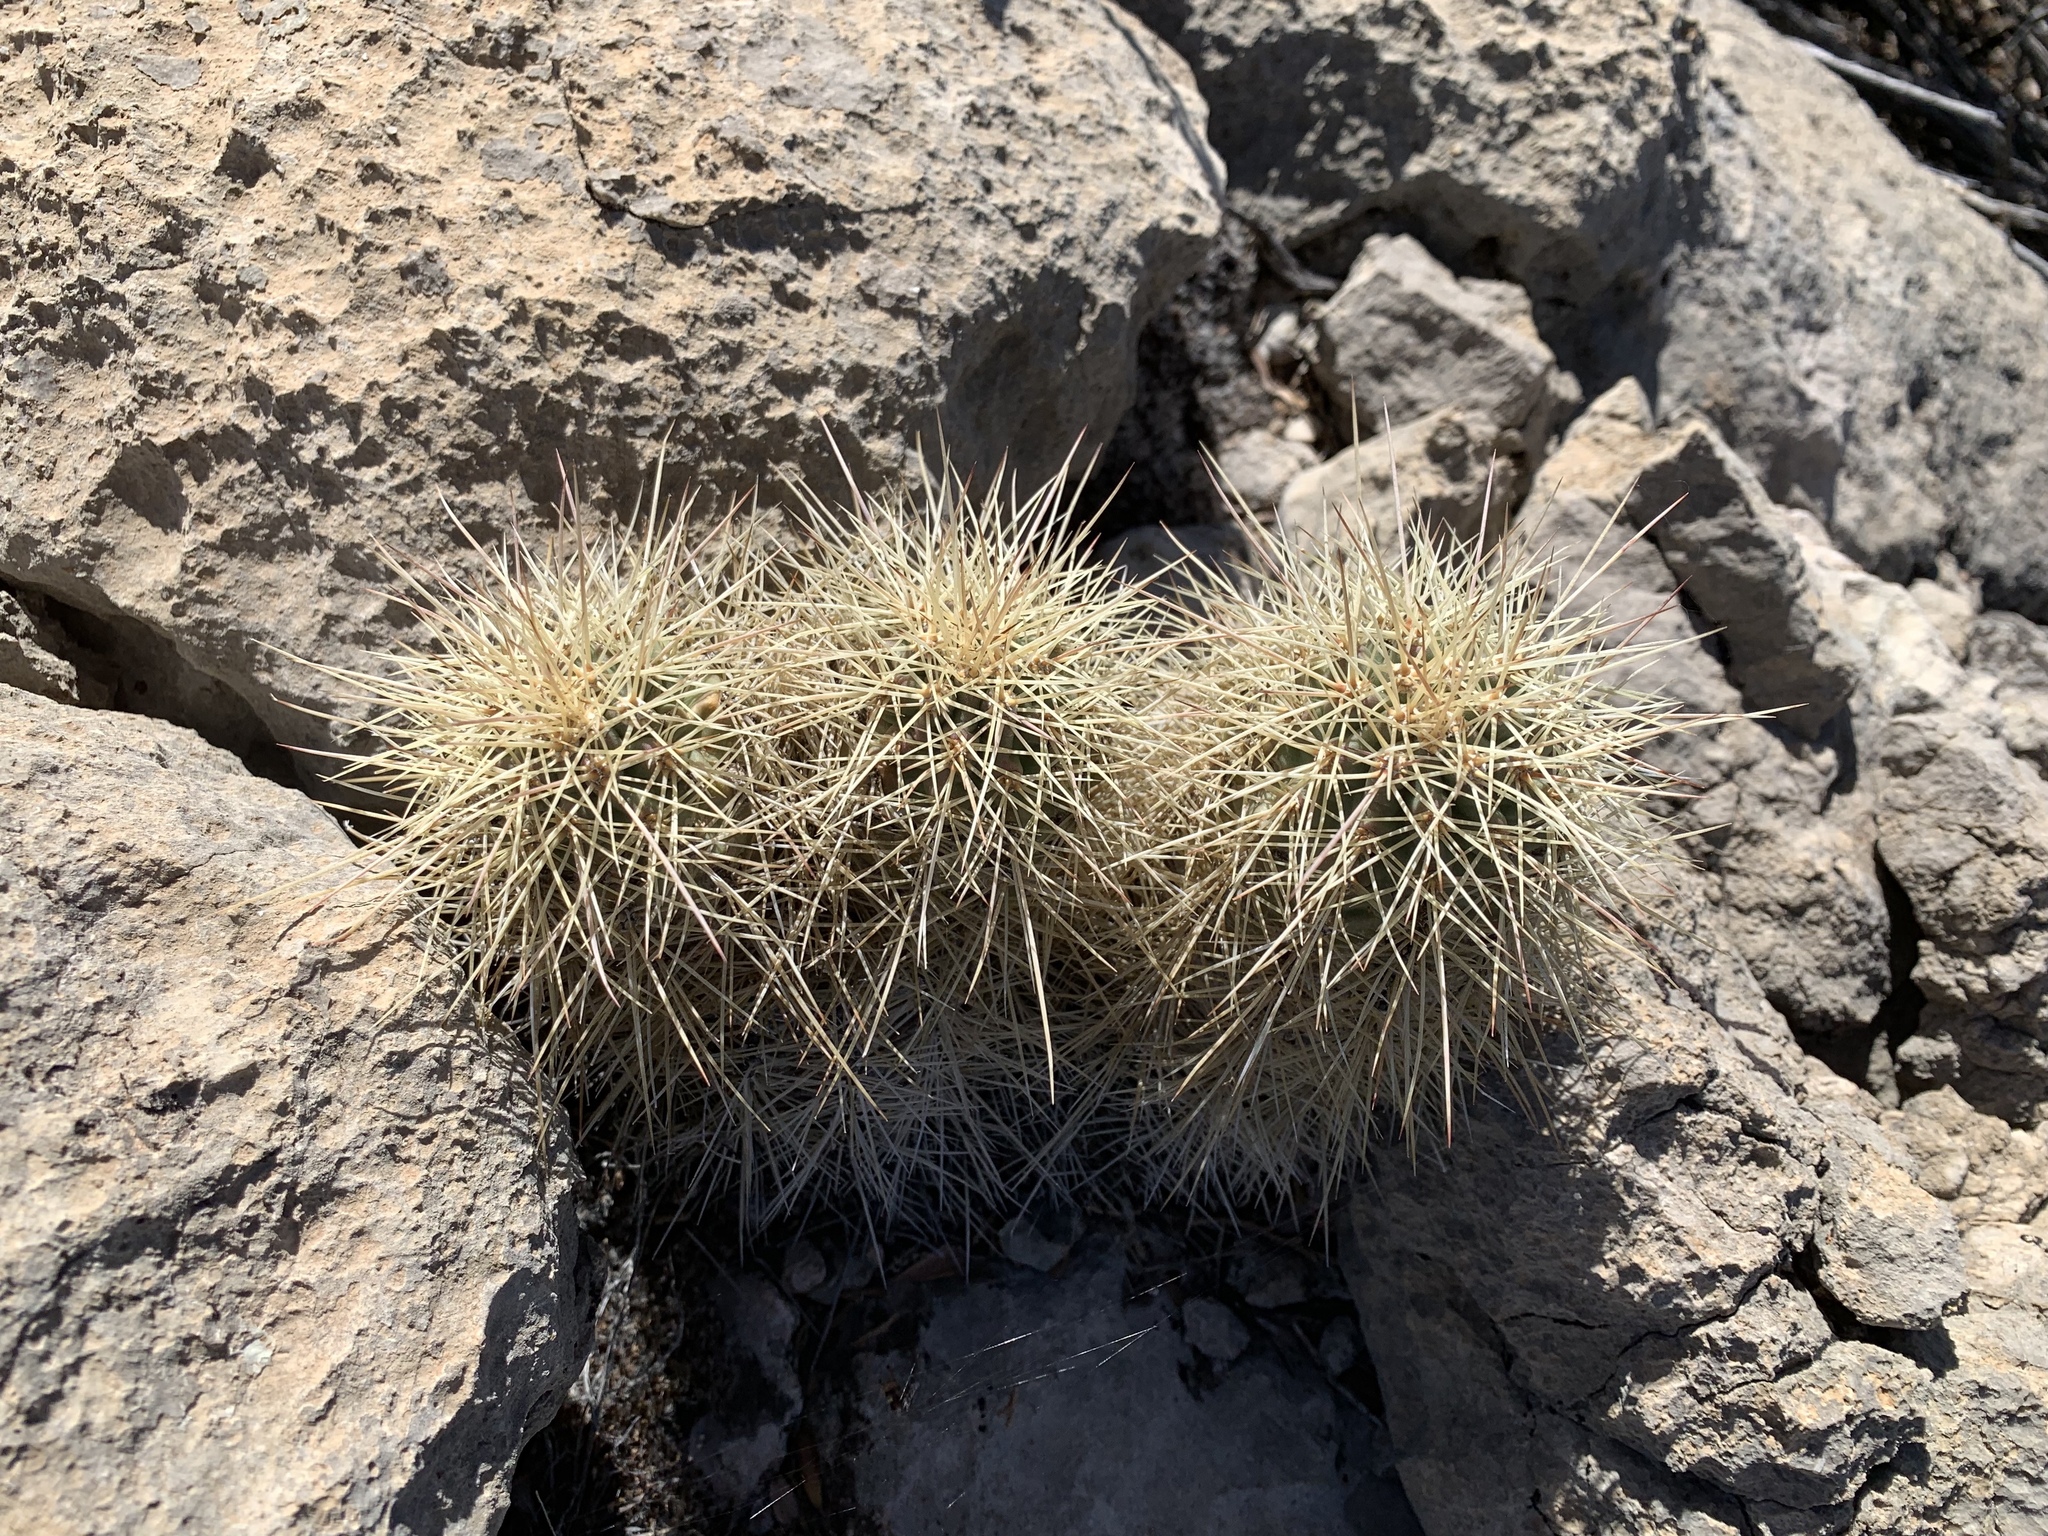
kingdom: Plantae
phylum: Tracheophyta
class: Magnoliopsida
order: Caryophyllales
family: Cactaceae
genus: Echinocereus
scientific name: Echinocereus coccineus
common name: Scarlet hedgehog cactus
